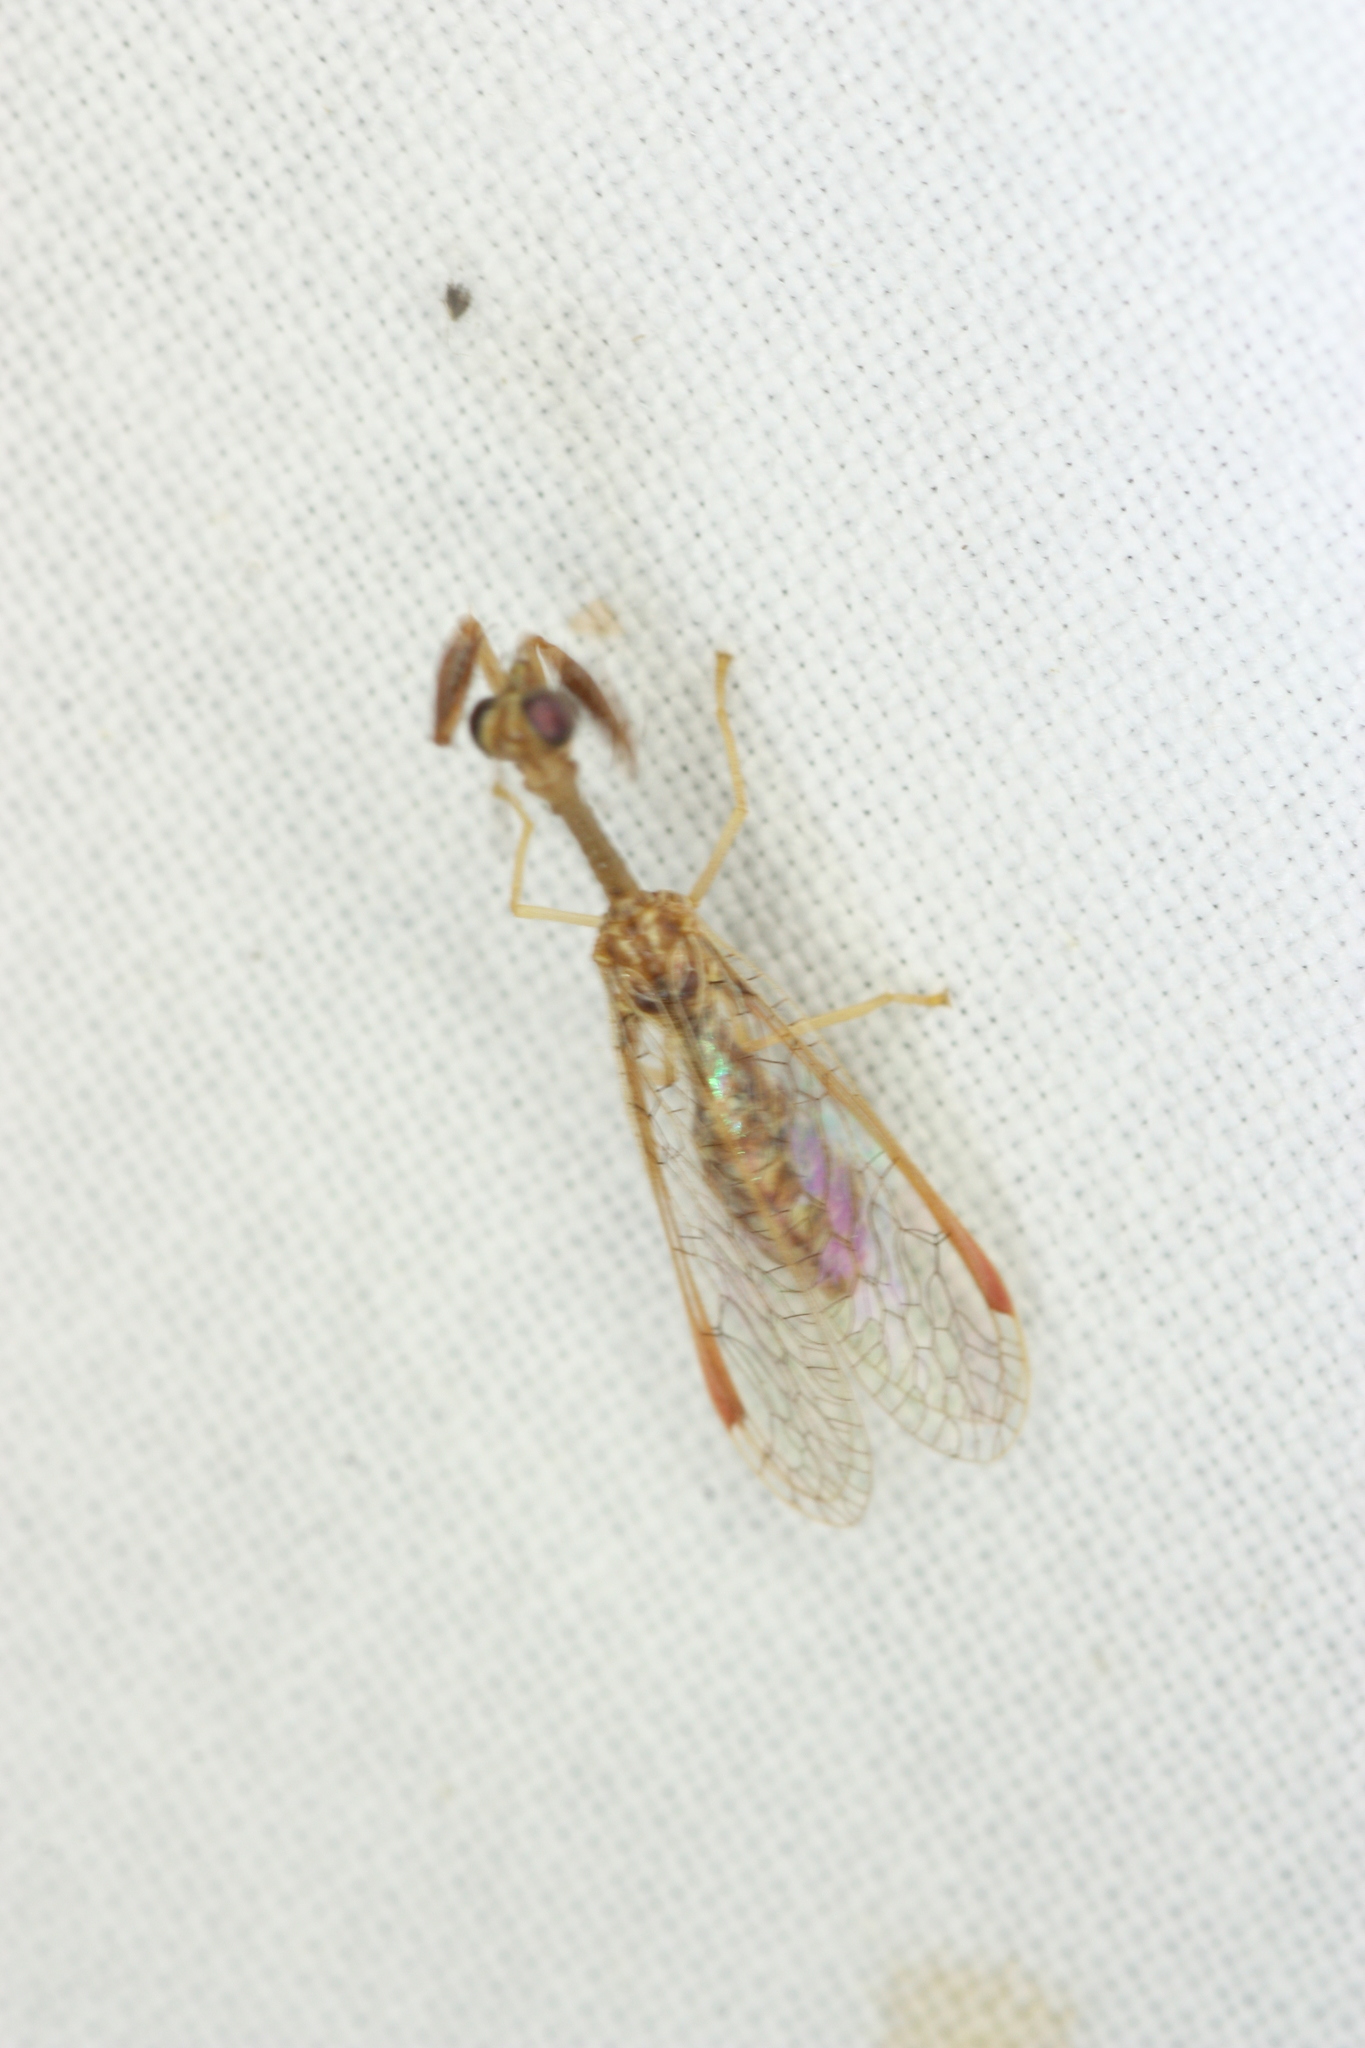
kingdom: Animalia
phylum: Arthropoda
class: Insecta
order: Neuroptera
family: Mantispidae
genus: Dicromantispa
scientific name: Dicromantispa sayi
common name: Say's mantidfly
